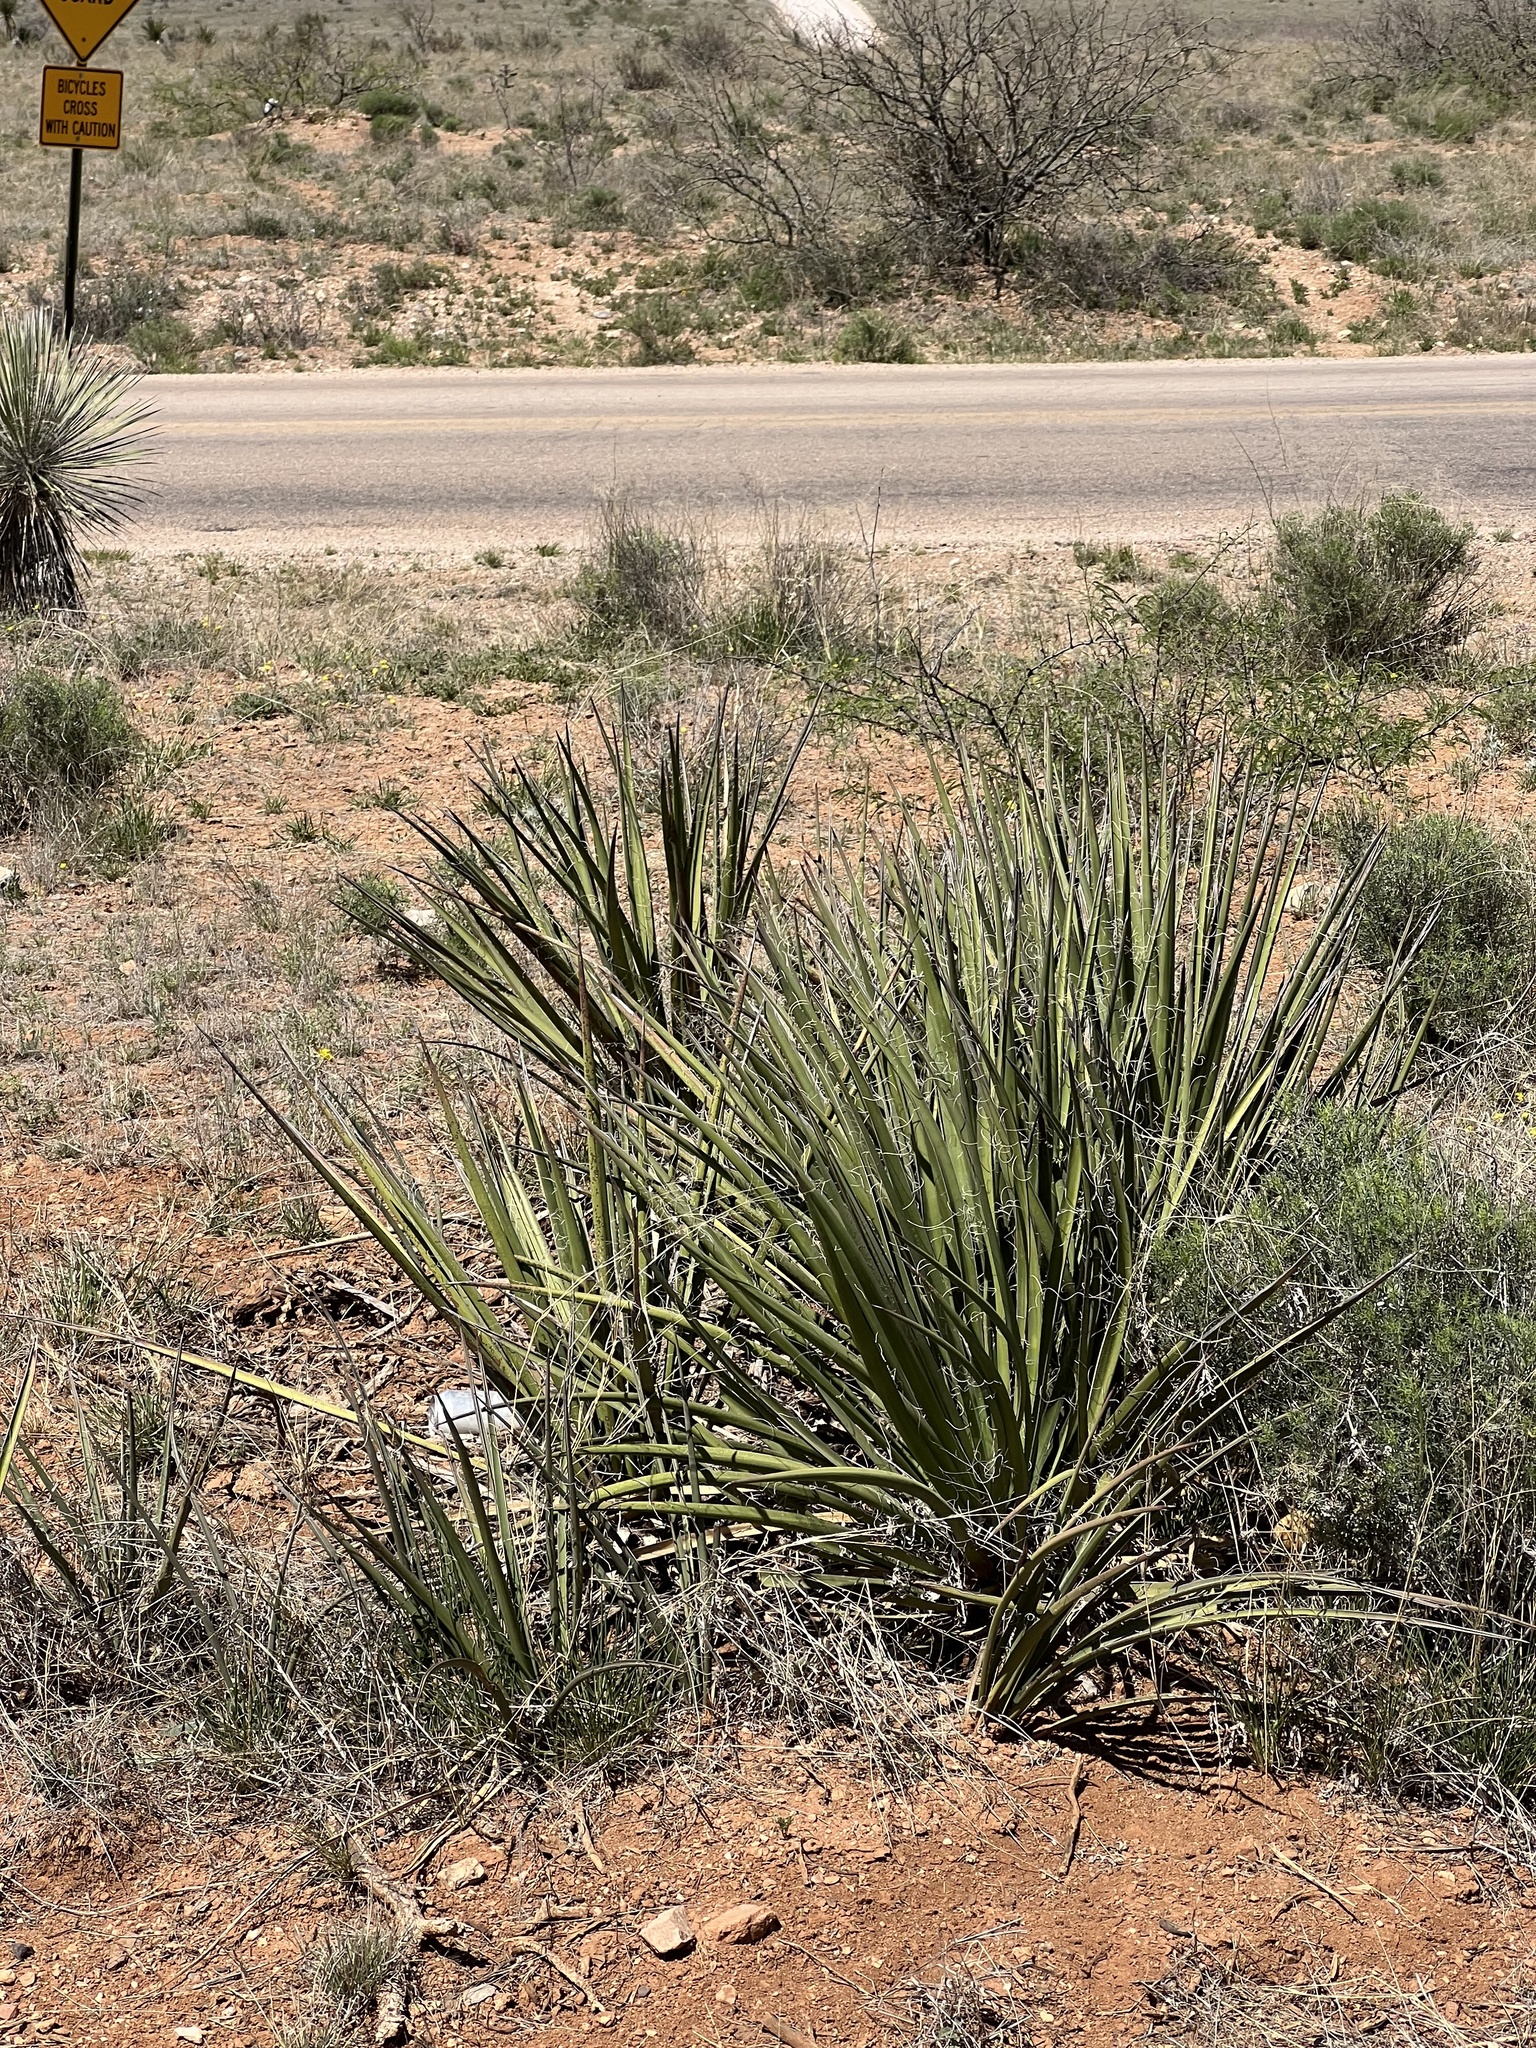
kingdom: Plantae
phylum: Tracheophyta
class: Liliopsida
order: Asparagales
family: Asparagaceae
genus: Yucca
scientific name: Yucca baccata
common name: Banana yucca
